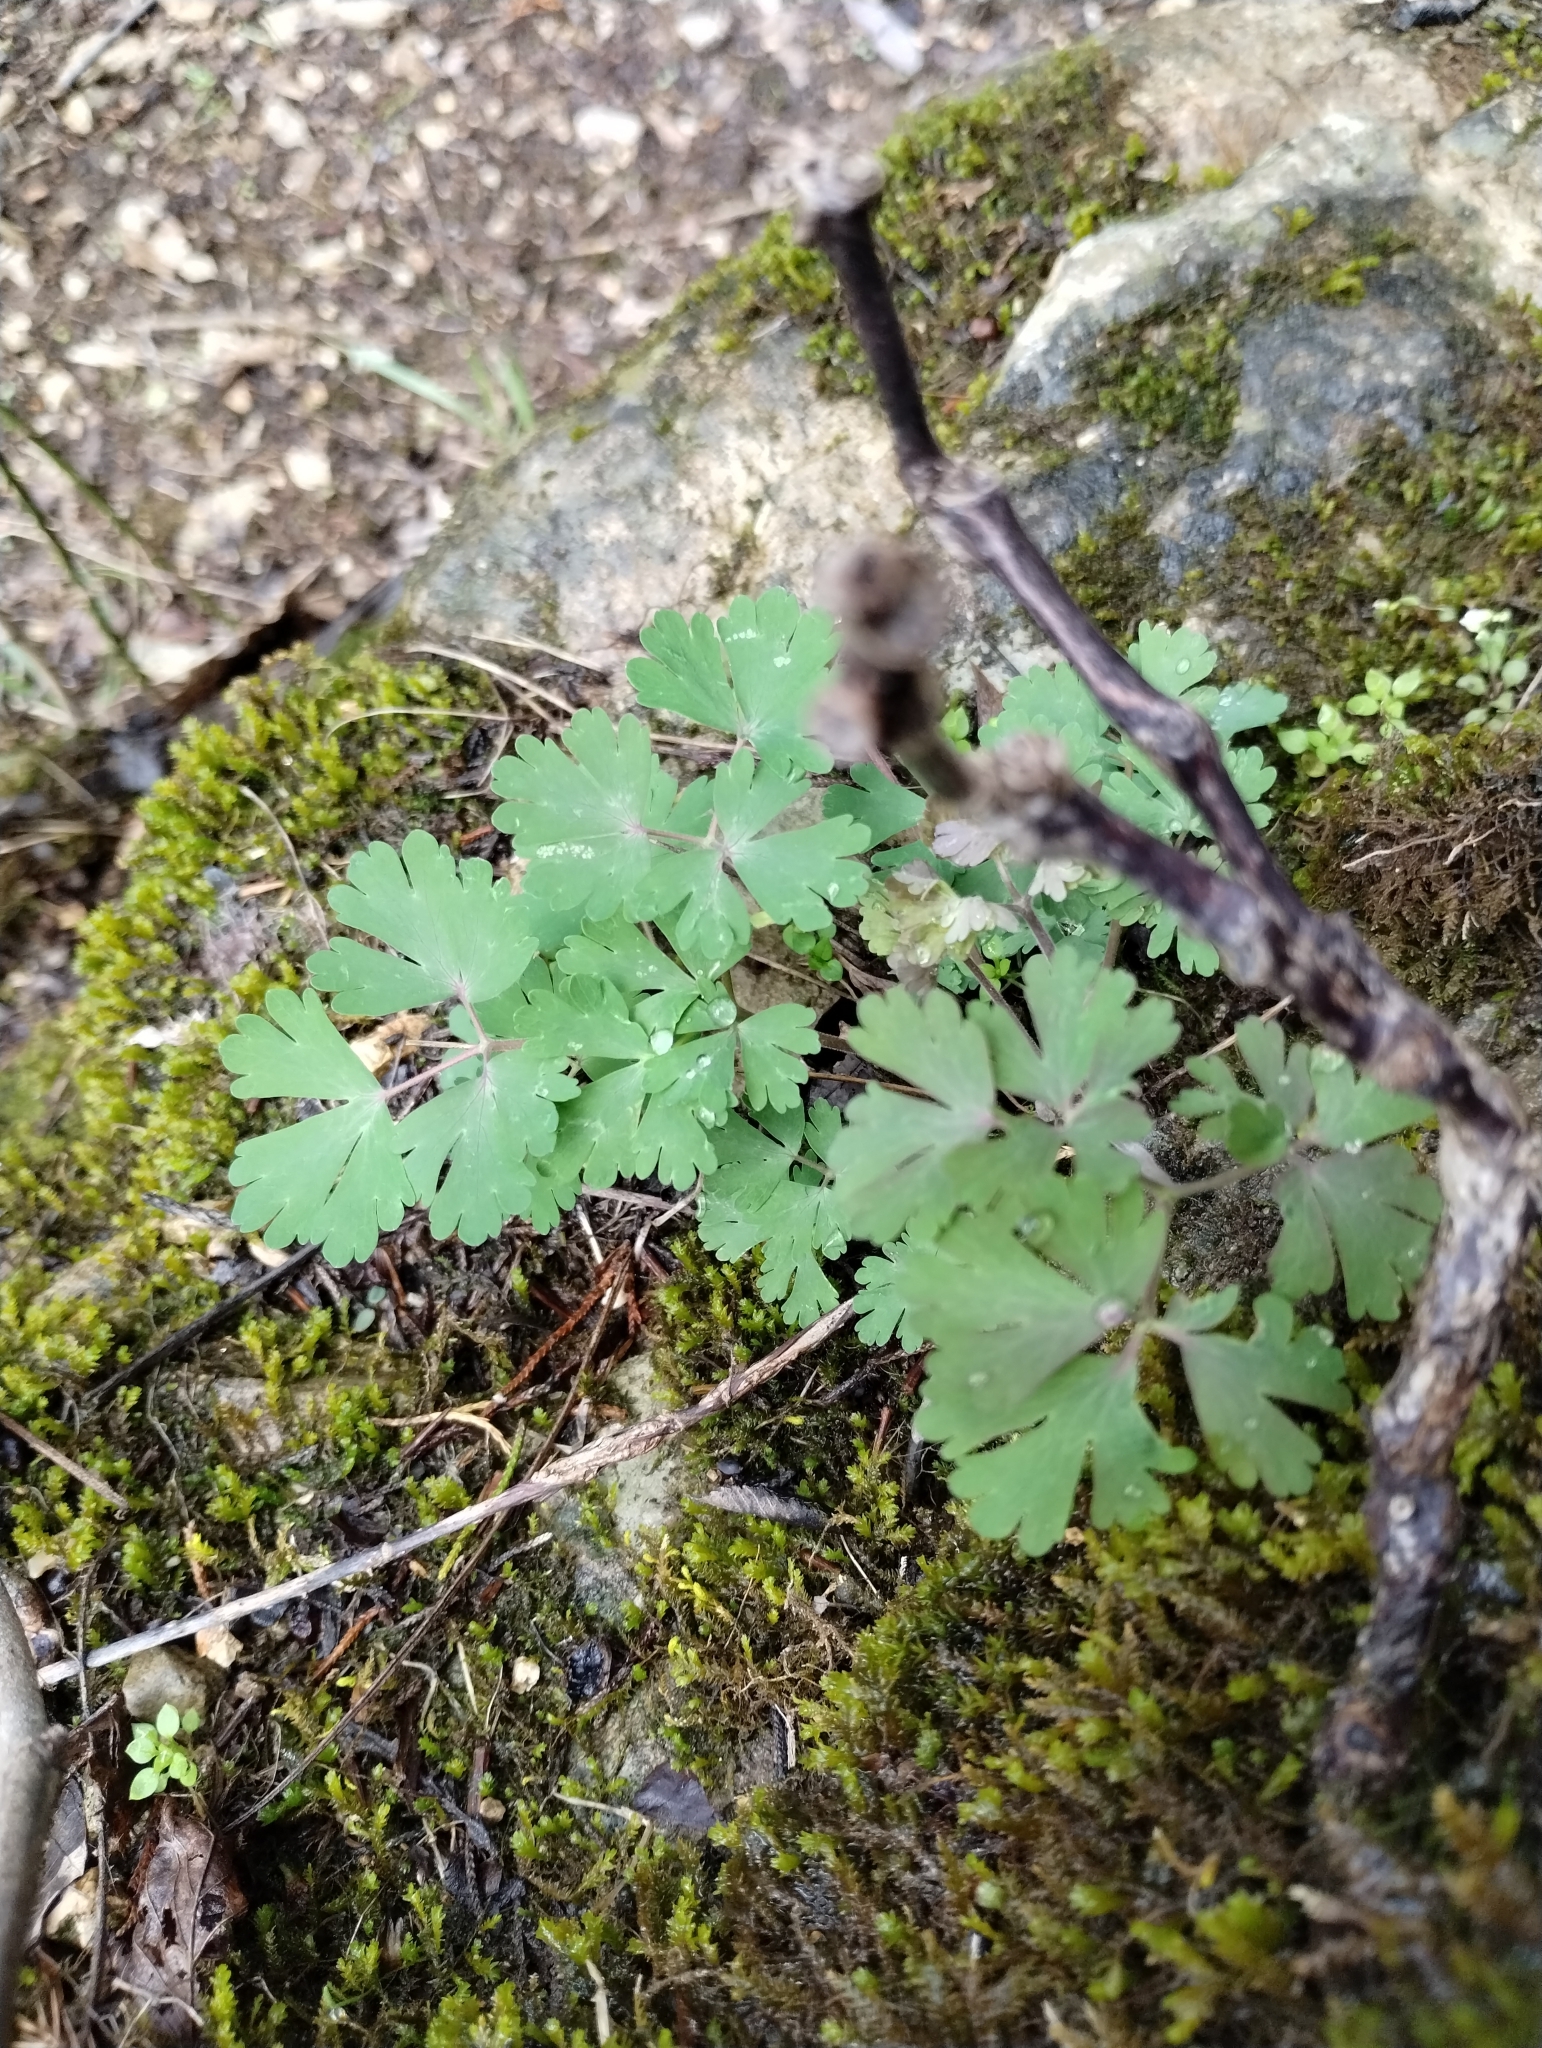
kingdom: Plantae
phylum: Tracheophyta
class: Magnoliopsida
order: Ranunculales
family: Ranunculaceae
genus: Aquilegia
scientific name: Aquilegia canadensis
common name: American columbine
